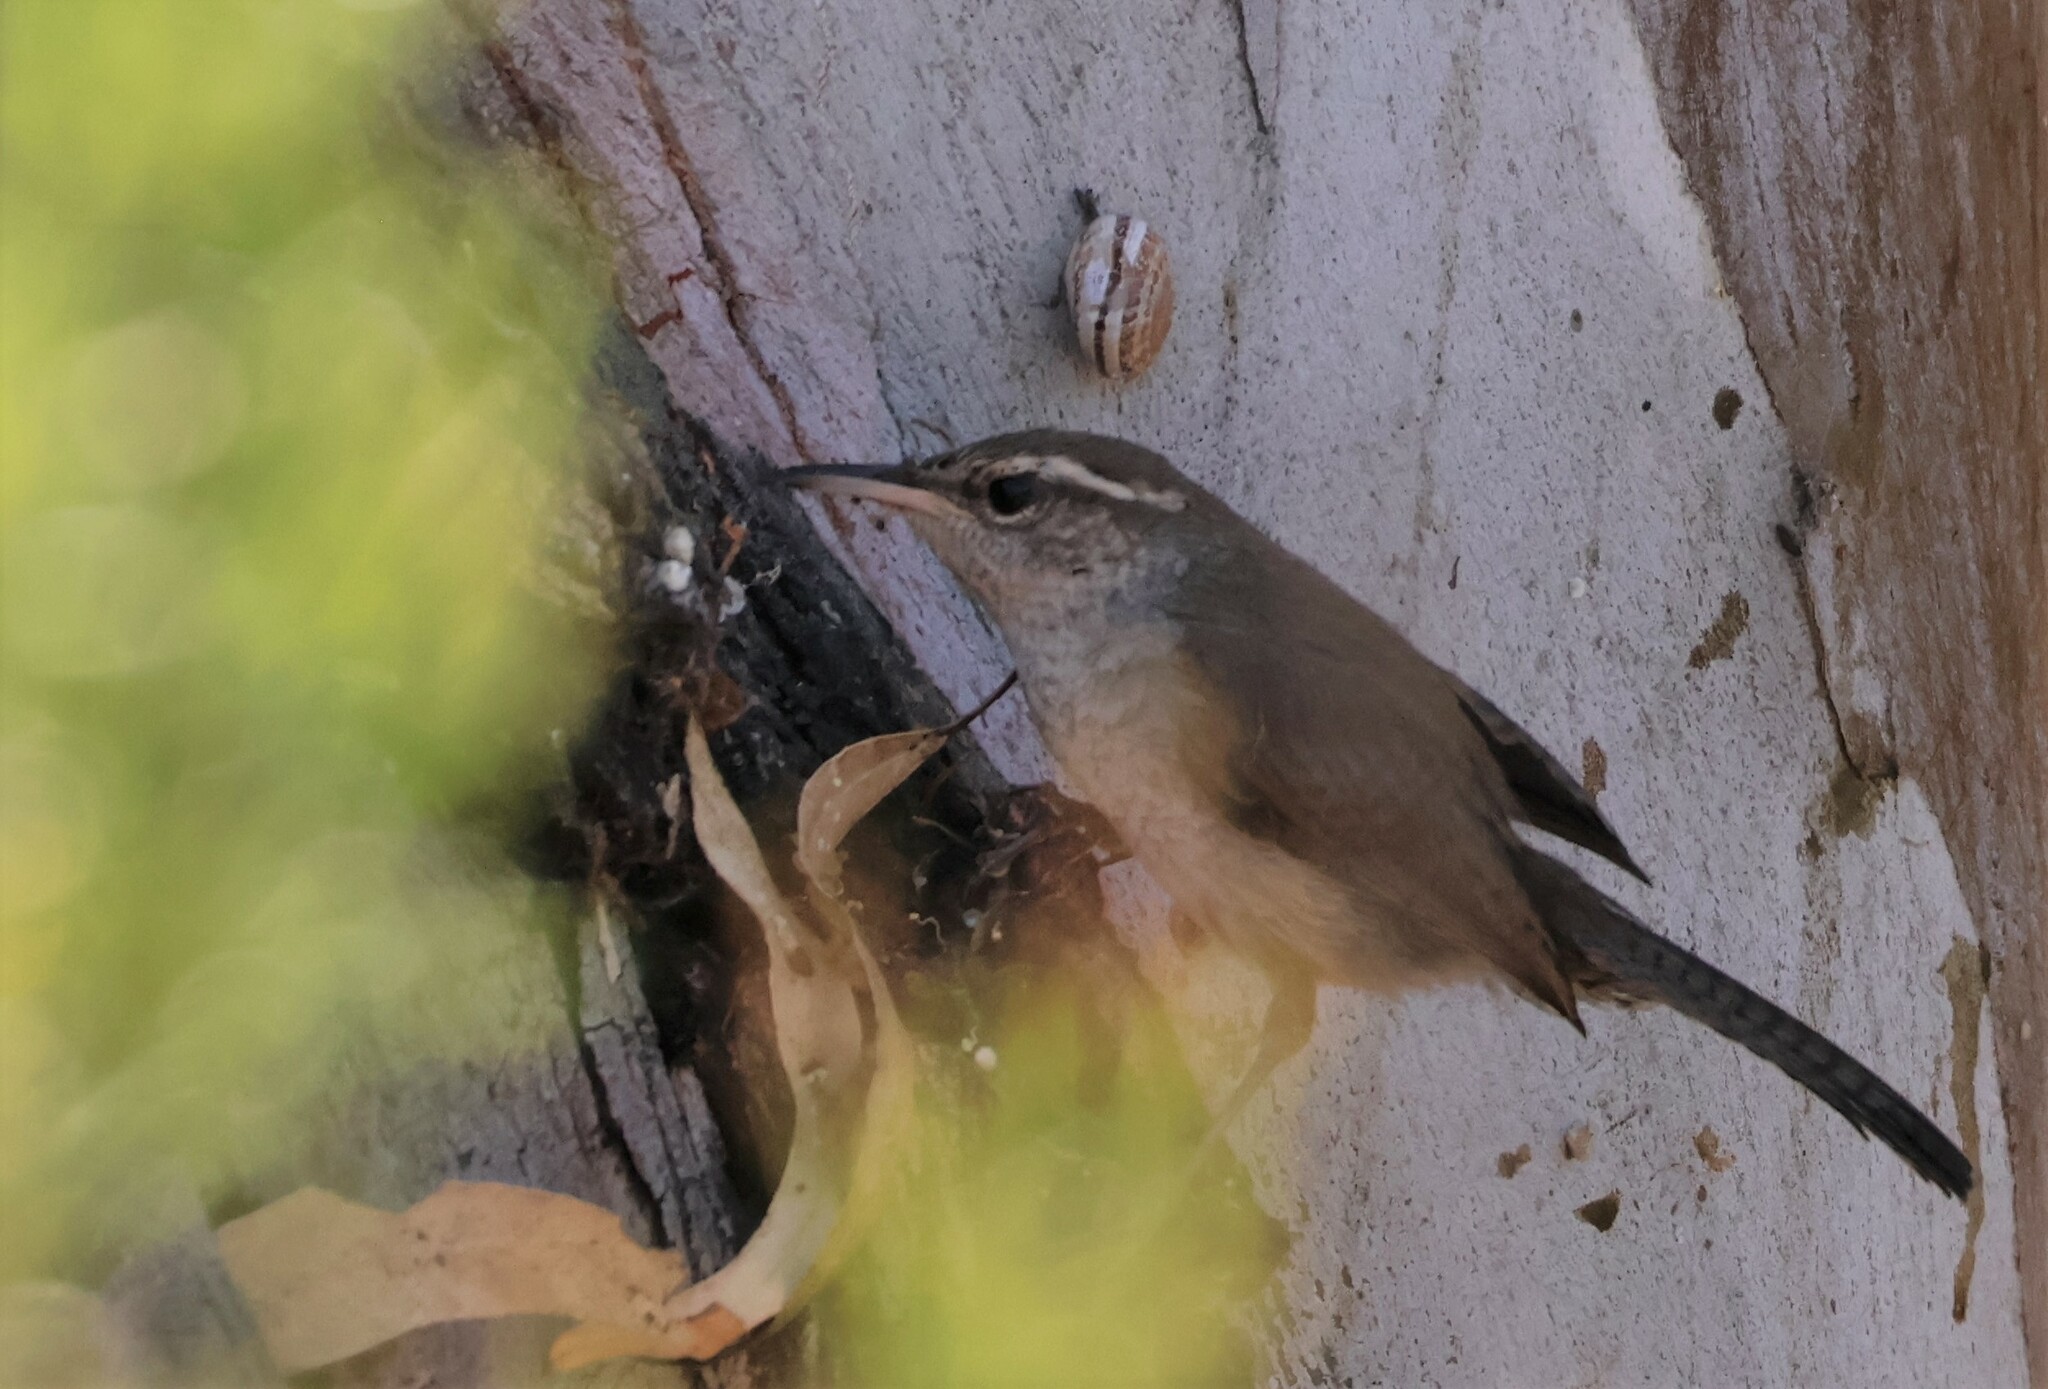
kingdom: Animalia
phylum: Chordata
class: Aves
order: Passeriformes
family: Troglodytidae
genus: Thryomanes
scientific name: Thryomanes bewickii
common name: Bewick's wren
